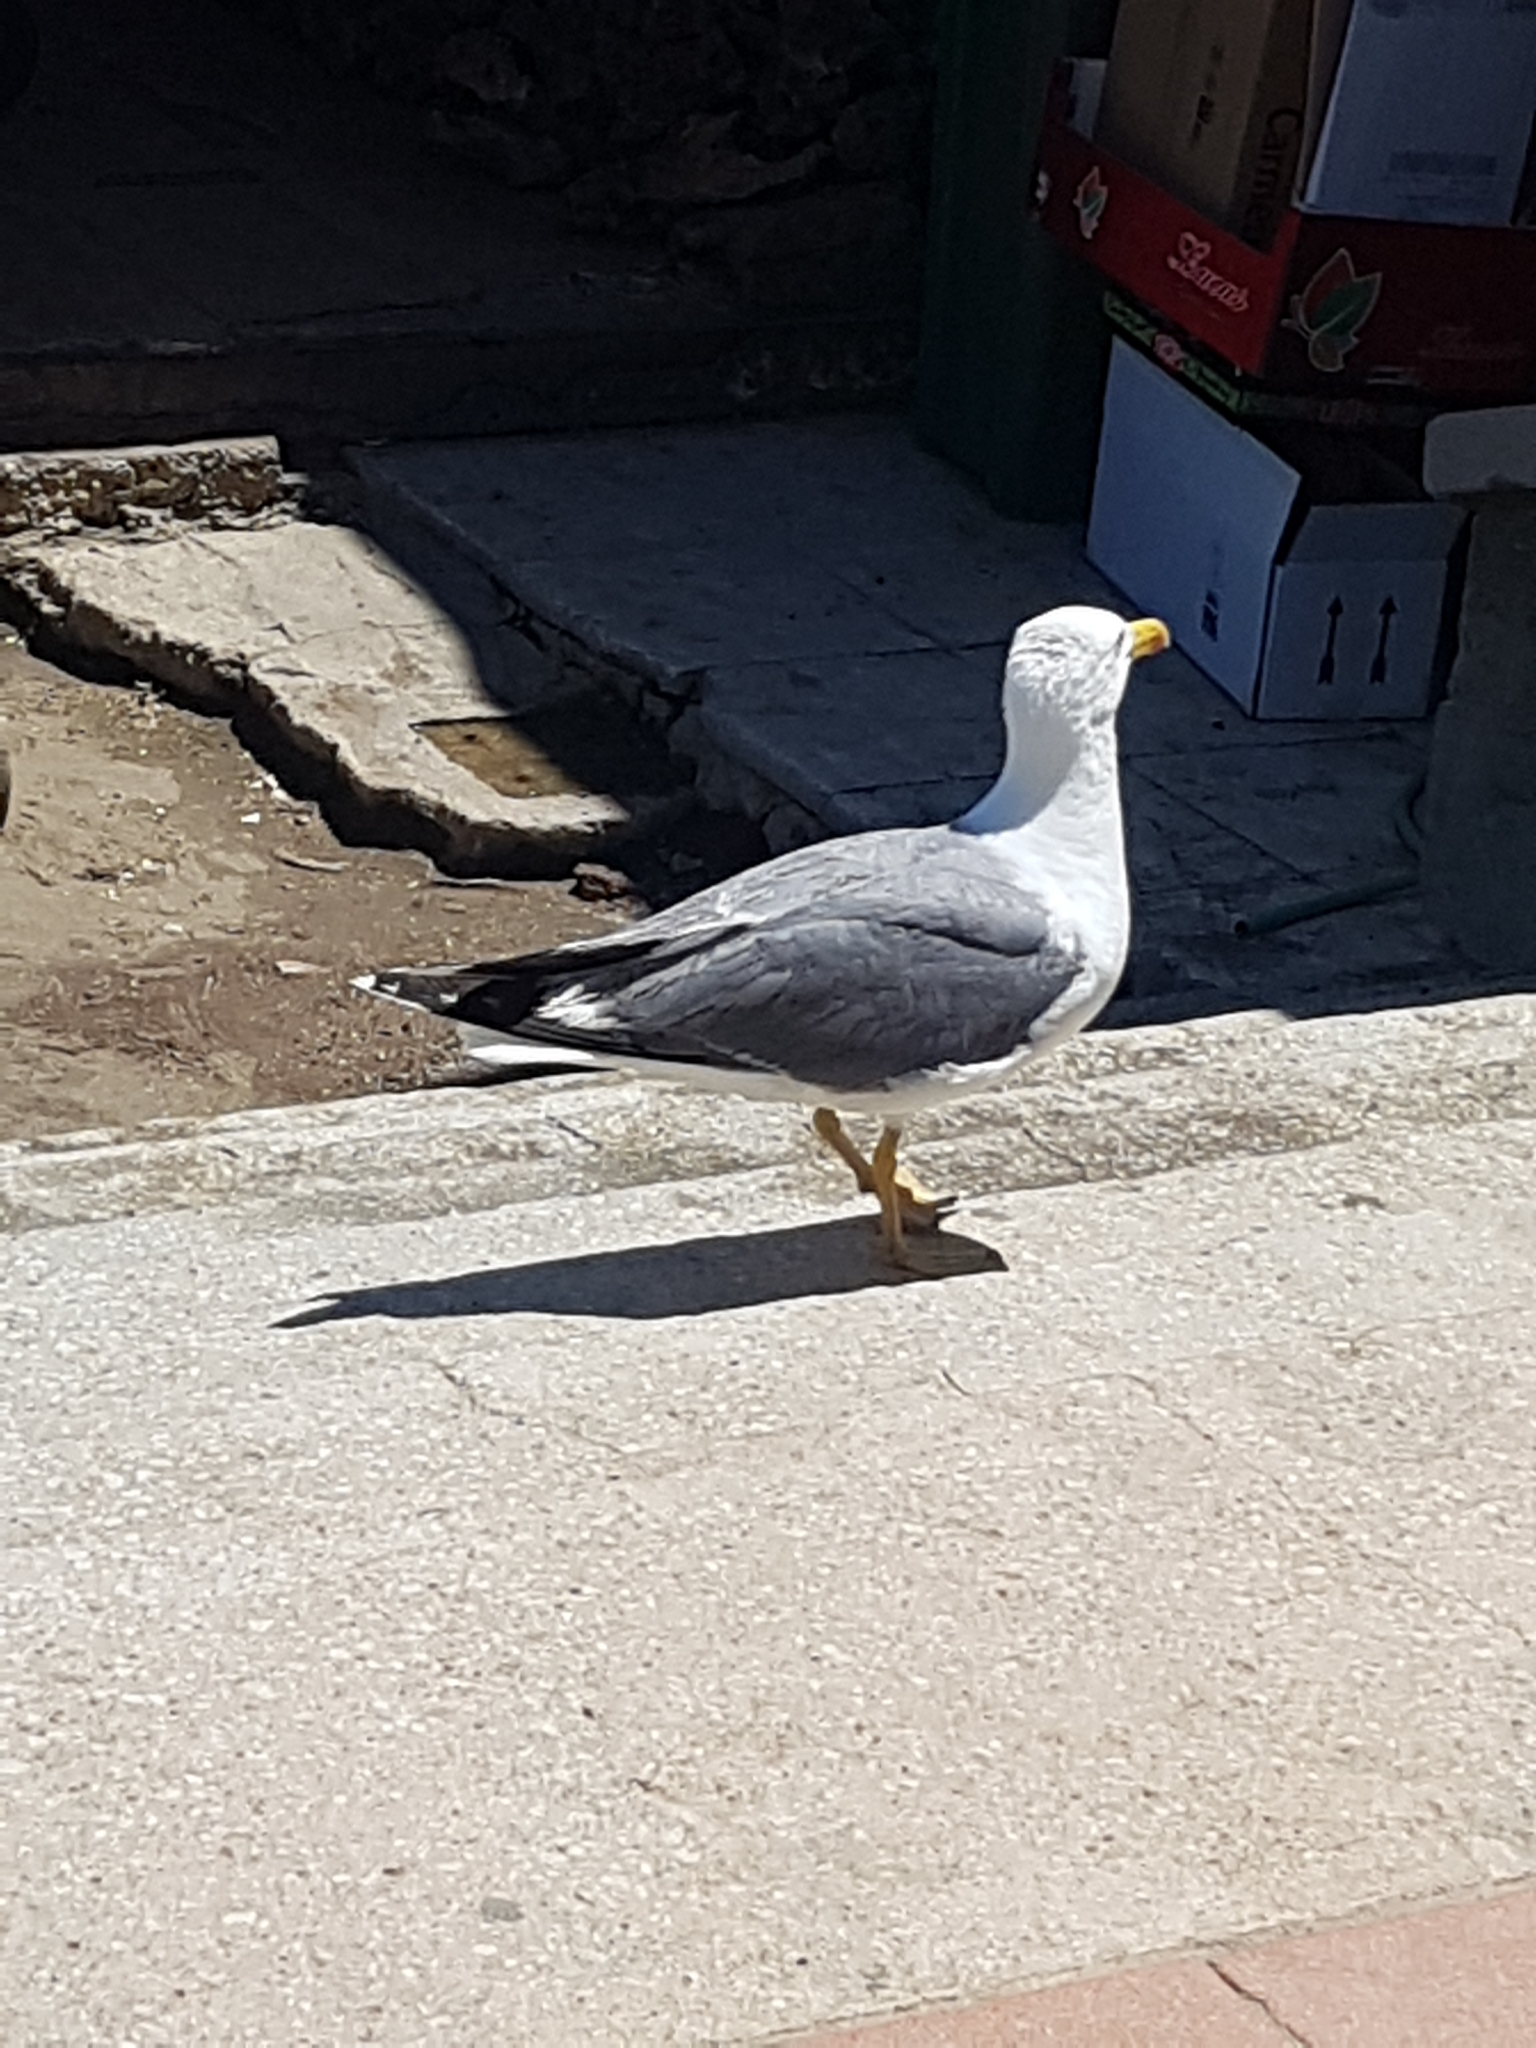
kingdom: Animalia
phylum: Chordata
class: Aves
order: Charadriiformes
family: Laridae
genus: Larus
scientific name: Larus michahellis
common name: Yellow-legged gull
